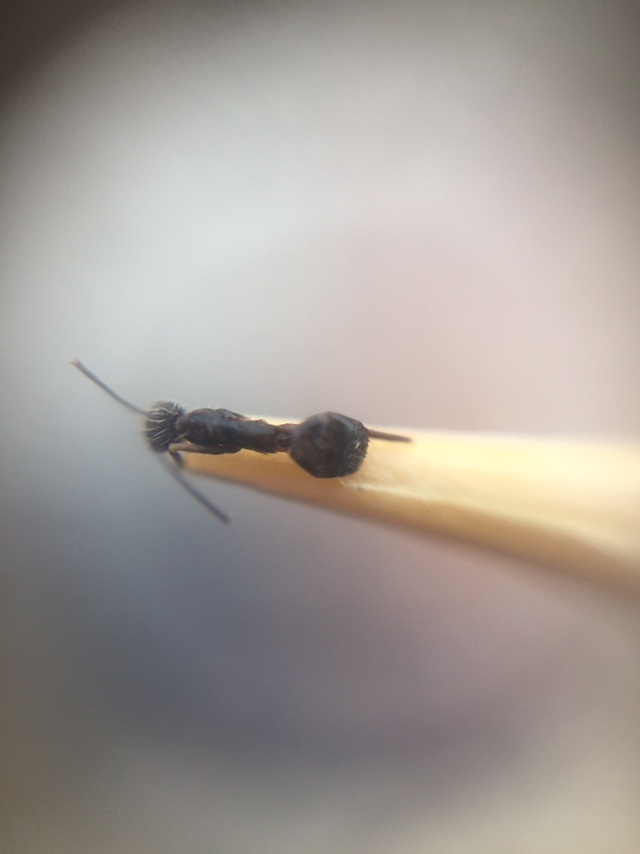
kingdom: Animalia
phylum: Arthropoda
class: Insecta
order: Hymenoptera
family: Formicidae
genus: Paratrechina
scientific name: Paratrechina longicornis
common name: Longhorned crazy ant
